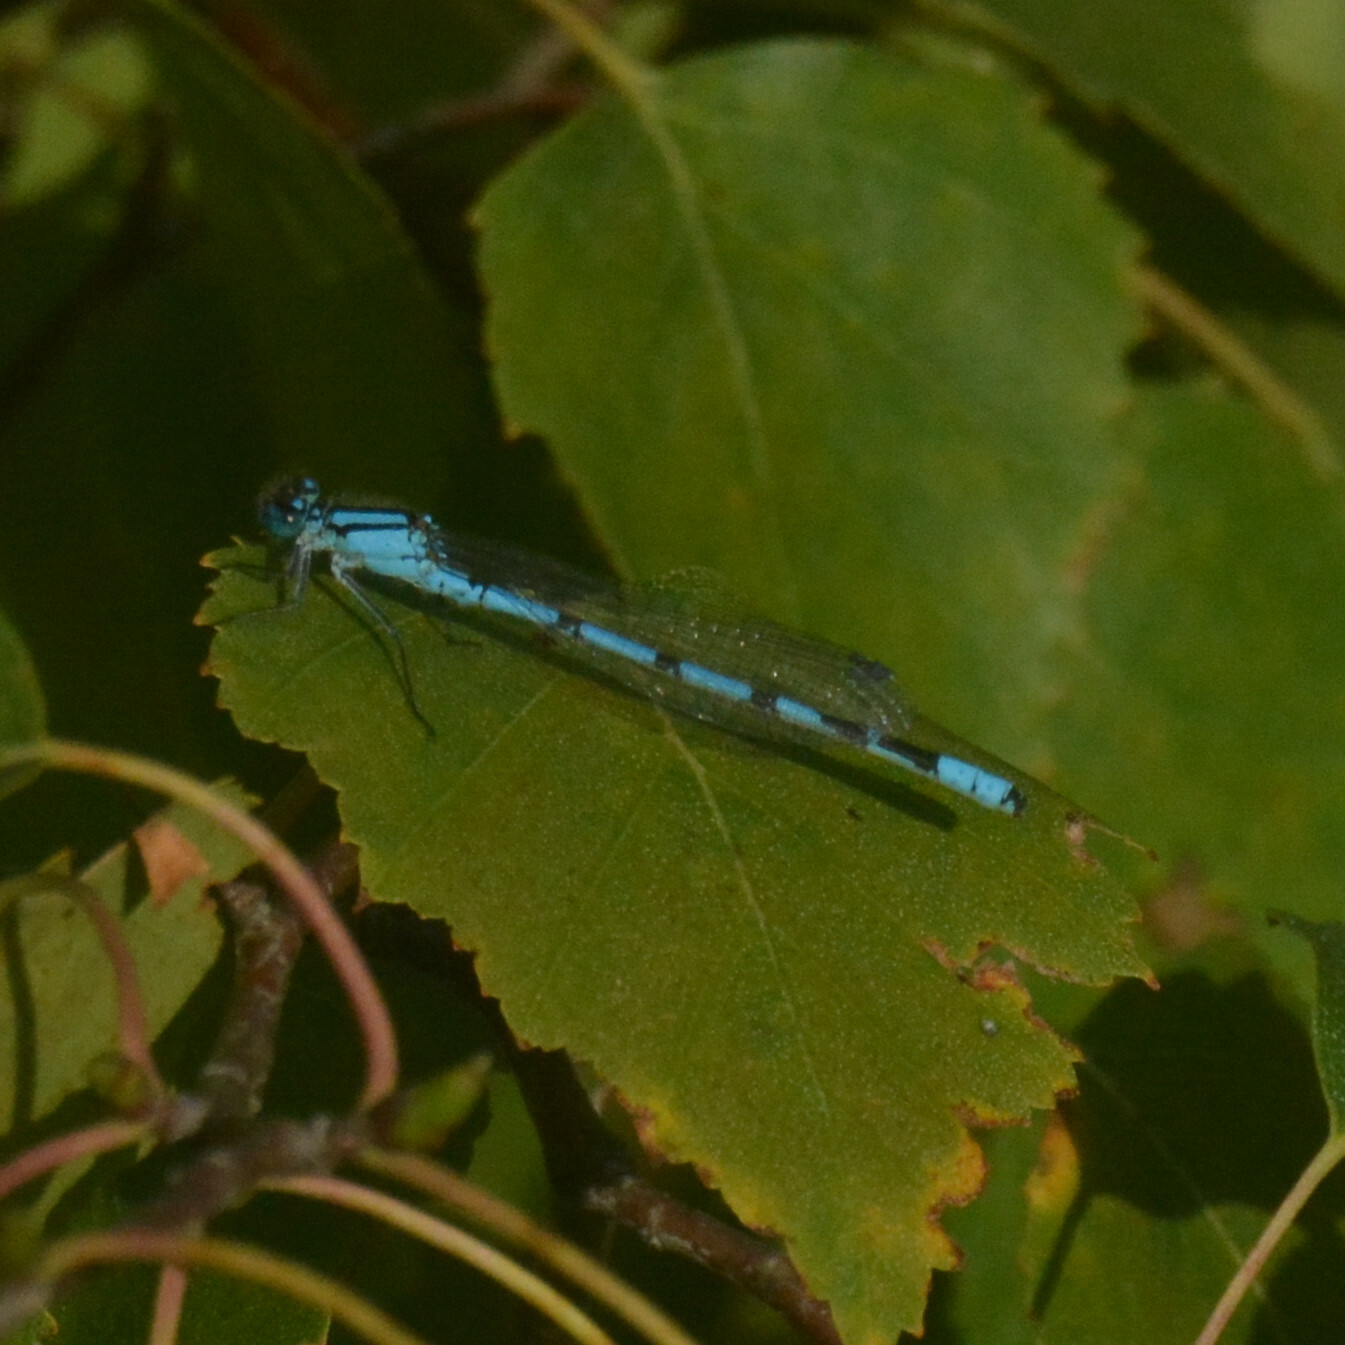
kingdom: Animalia
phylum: Arthropoda
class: Insecta
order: Odonata
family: Coenagrionidae
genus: Enallagma
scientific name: Enallagma cyathigerum
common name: Common blue damselfly
